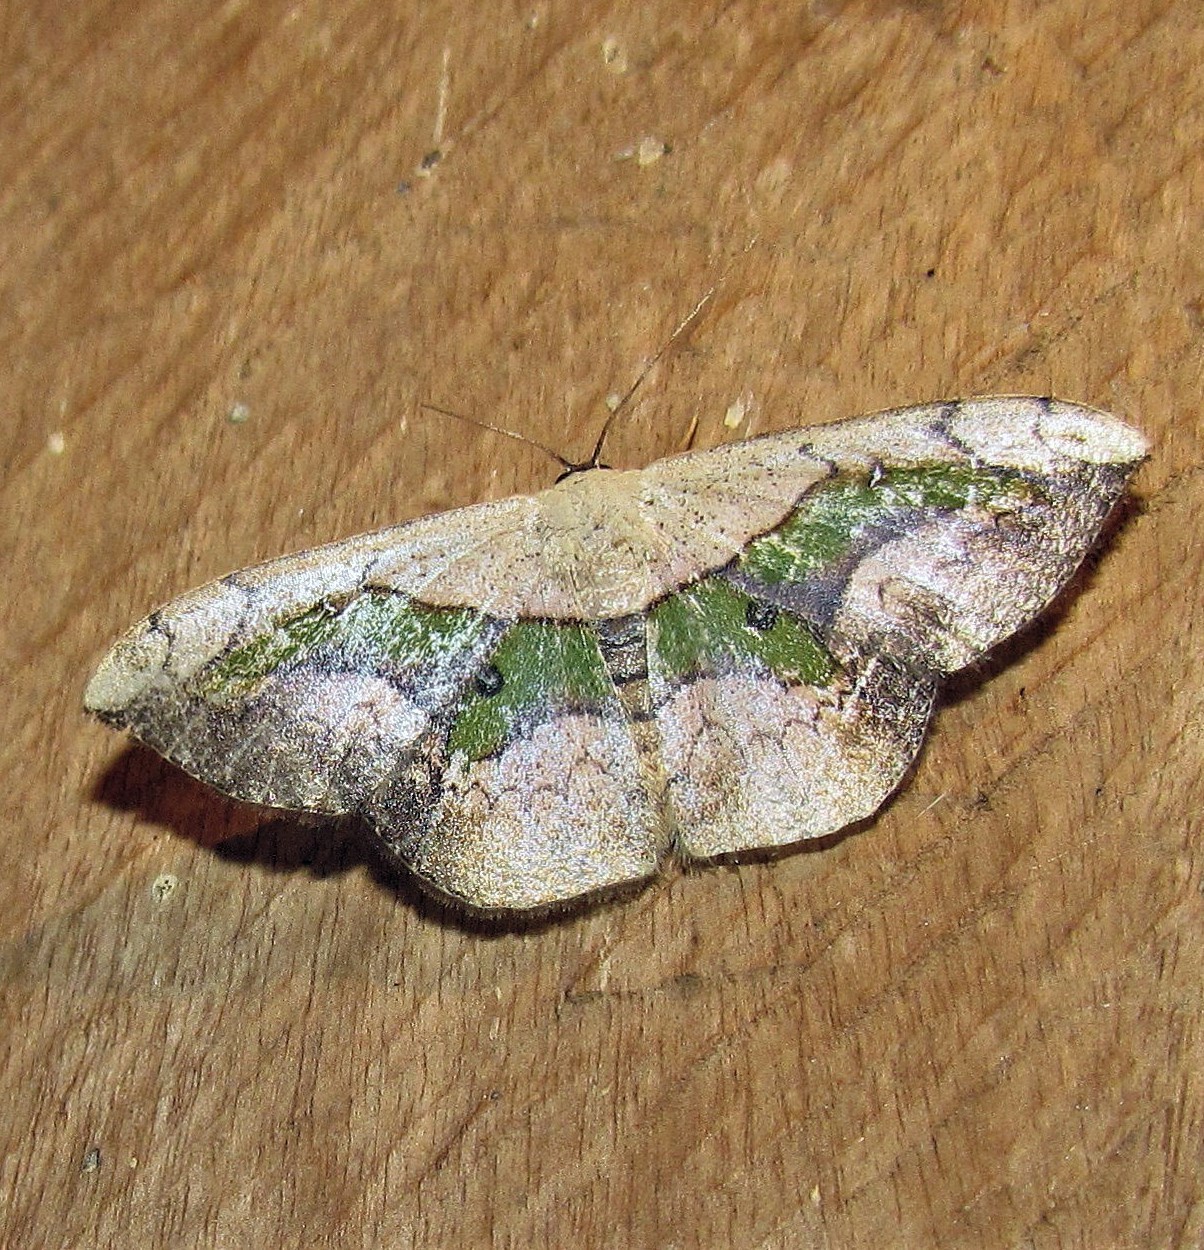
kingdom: Animalia
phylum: Arthropoda
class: Insecta
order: Lepidoptera
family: Geometridae
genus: Semaeopus
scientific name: Semaeopus nisa
